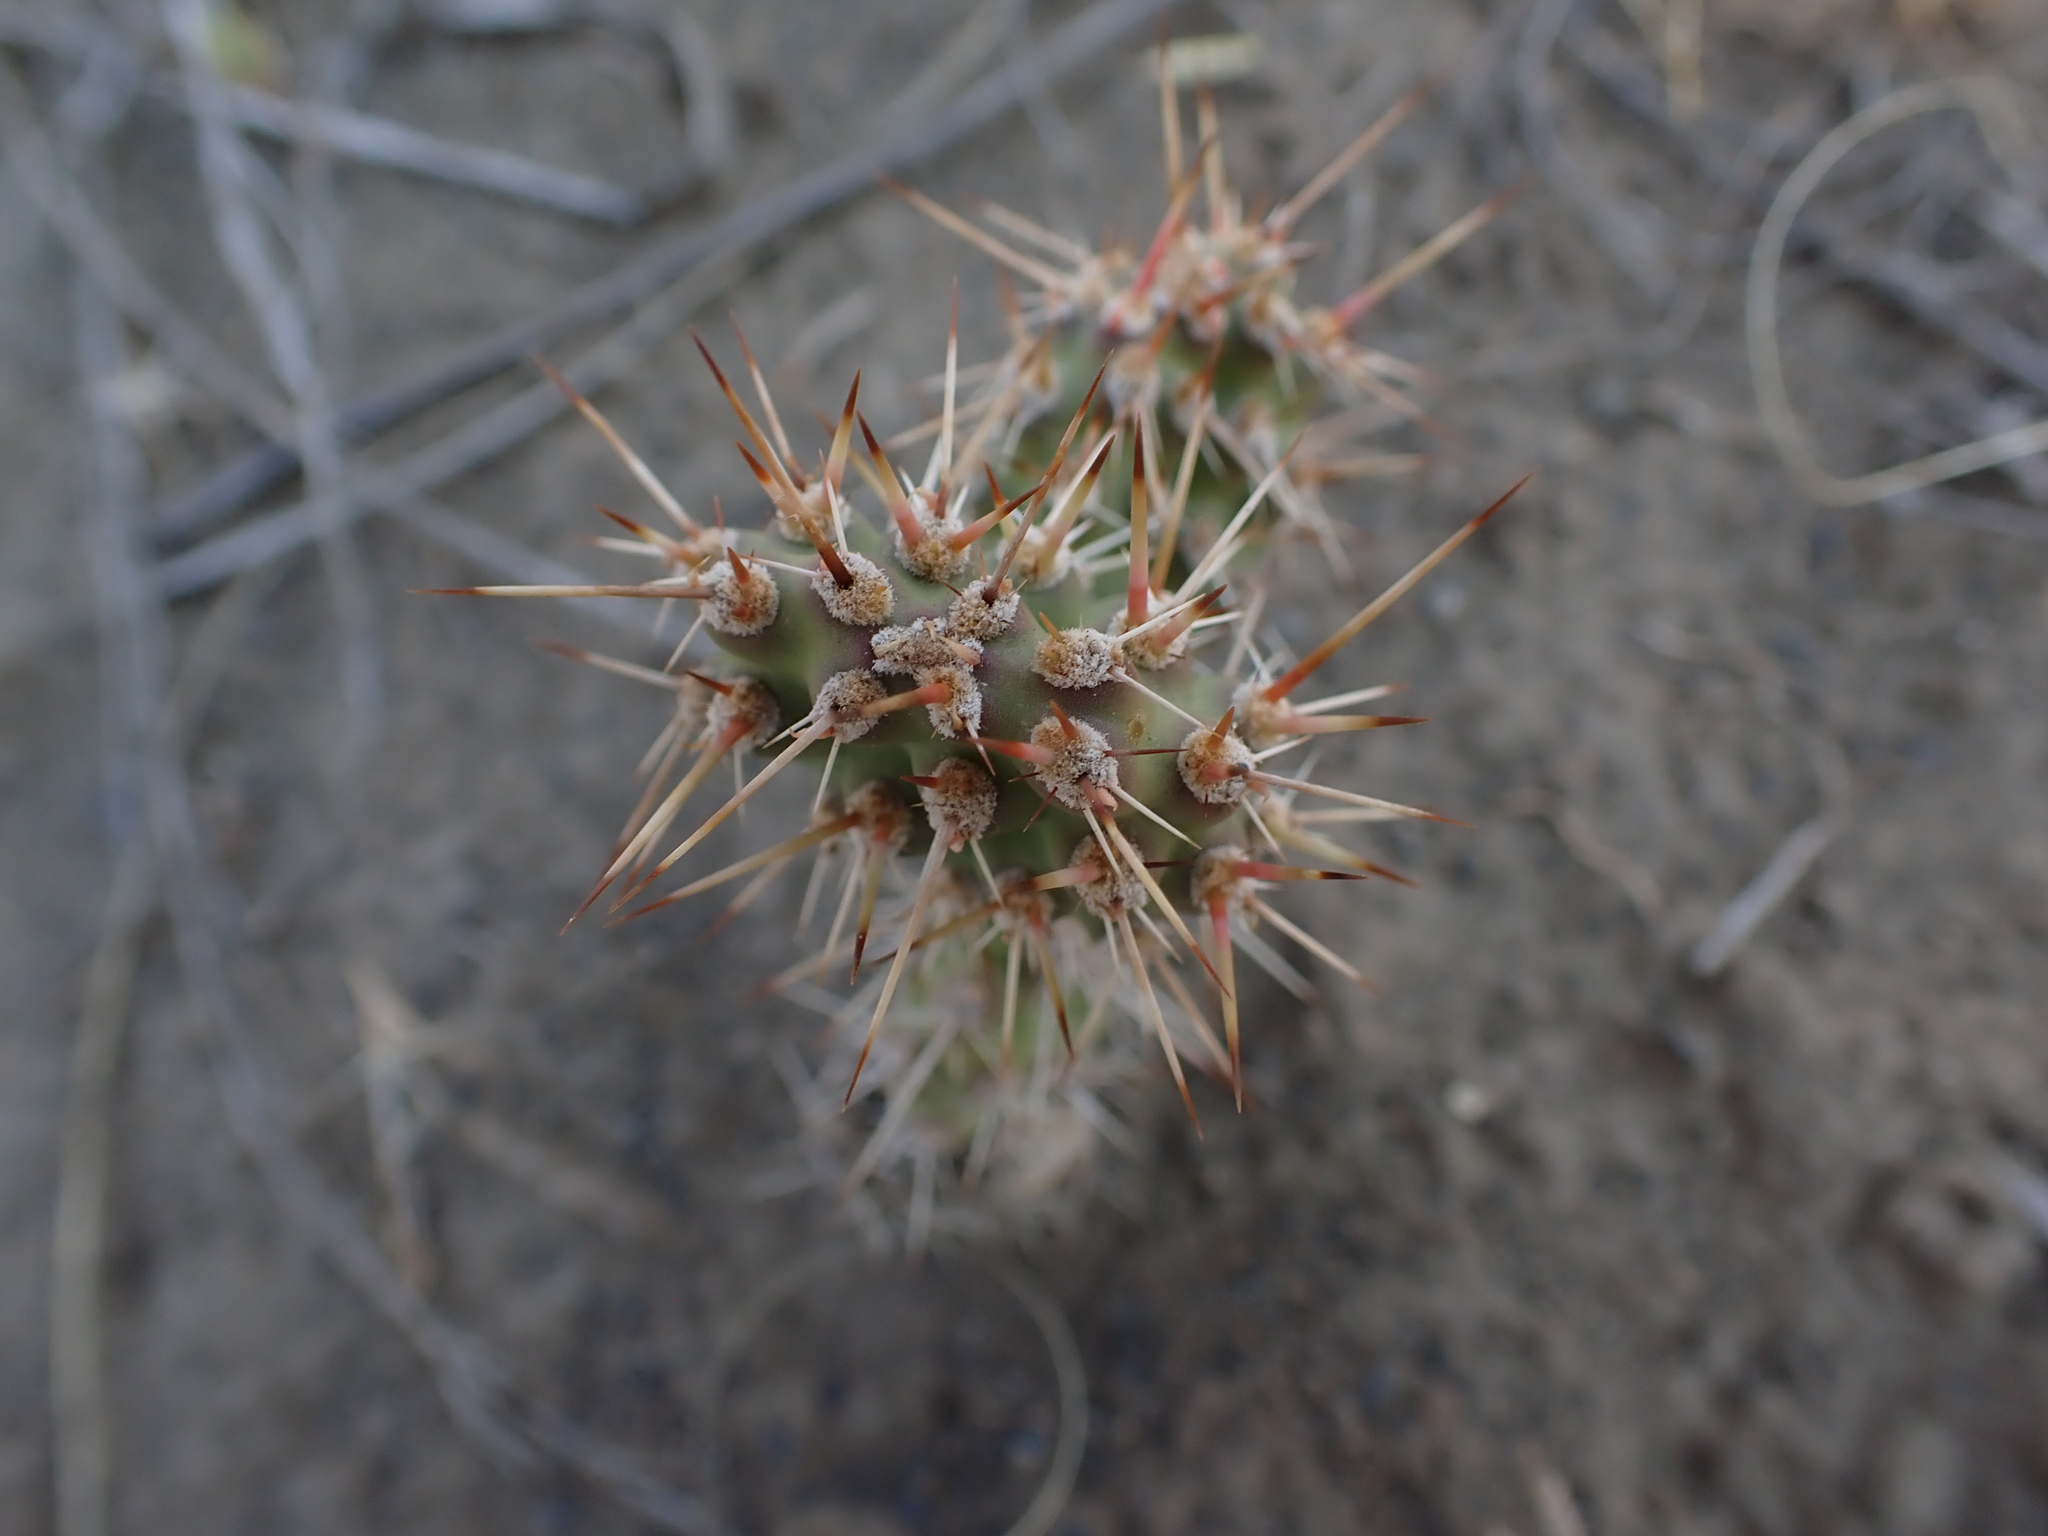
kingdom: Plantae
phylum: Tracheophyta
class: Magnoliopsida
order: Caryophyllales
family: Cactaceae
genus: Opuntia
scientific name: Opuntia columbiana
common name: Columbia prickly-pear
